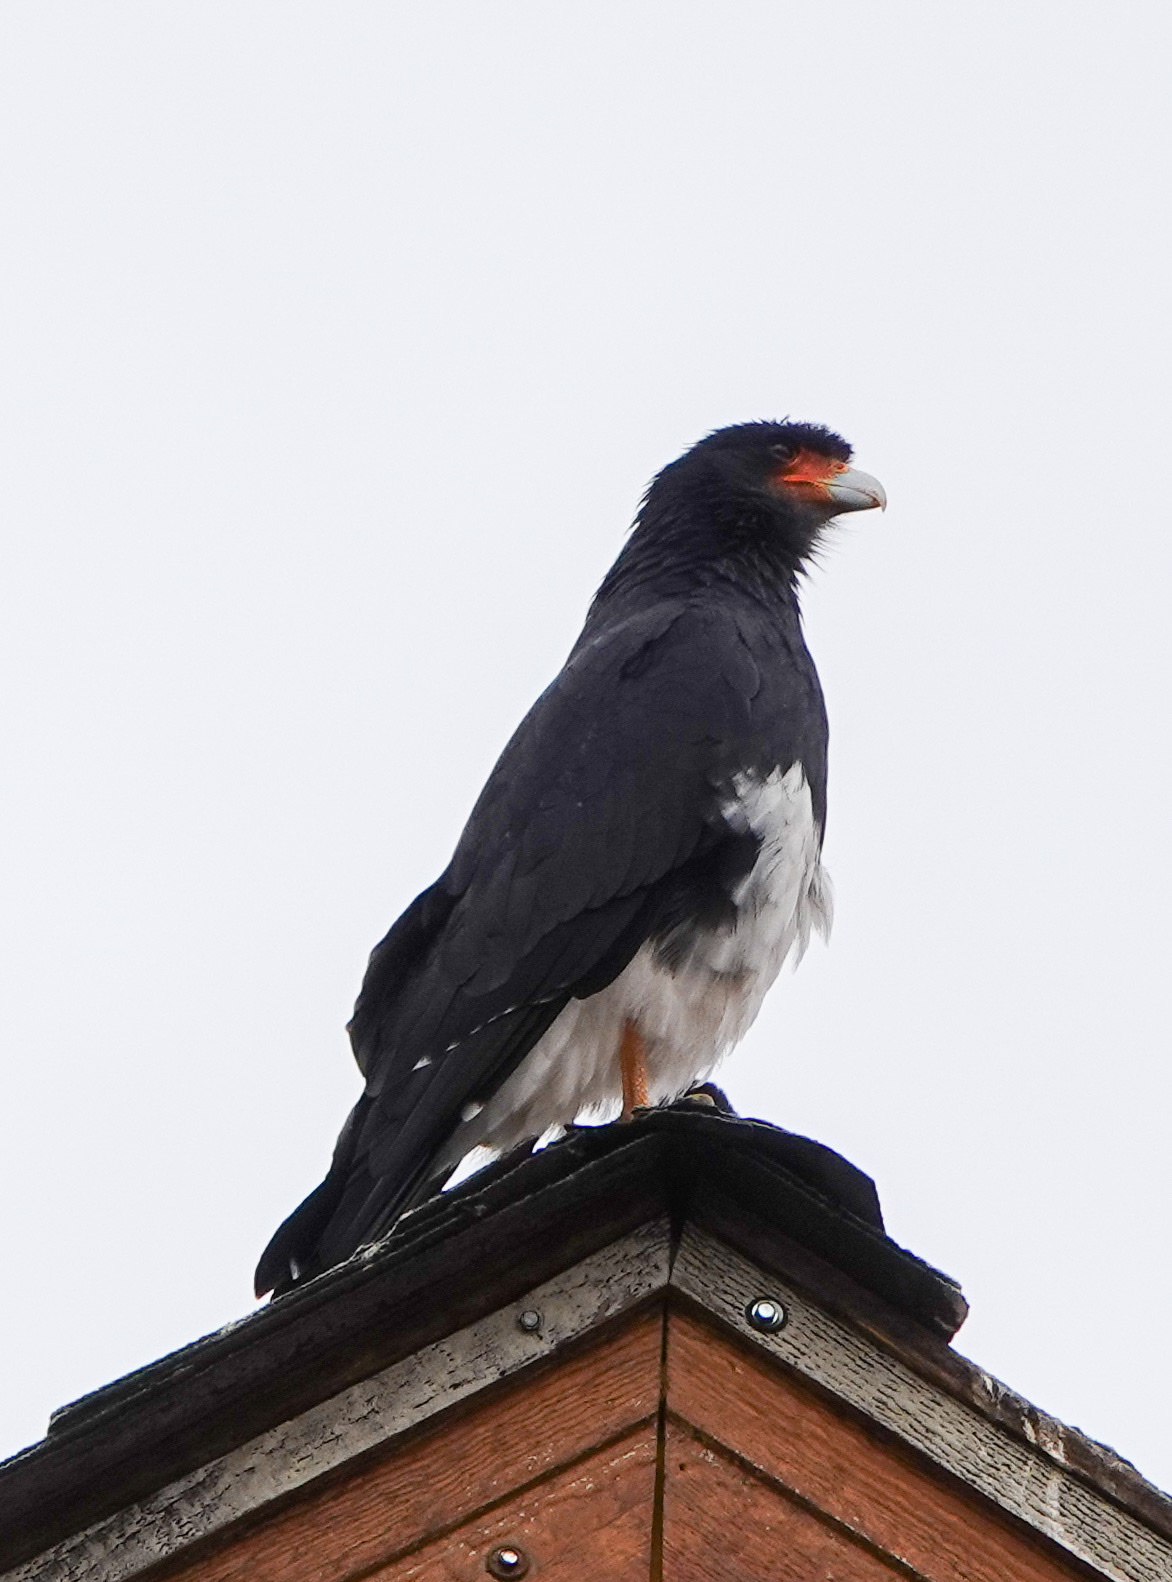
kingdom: Animalia
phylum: Chordata
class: Aves
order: Falconiformes
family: Falconidae
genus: Daptrius
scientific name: Daptrius
